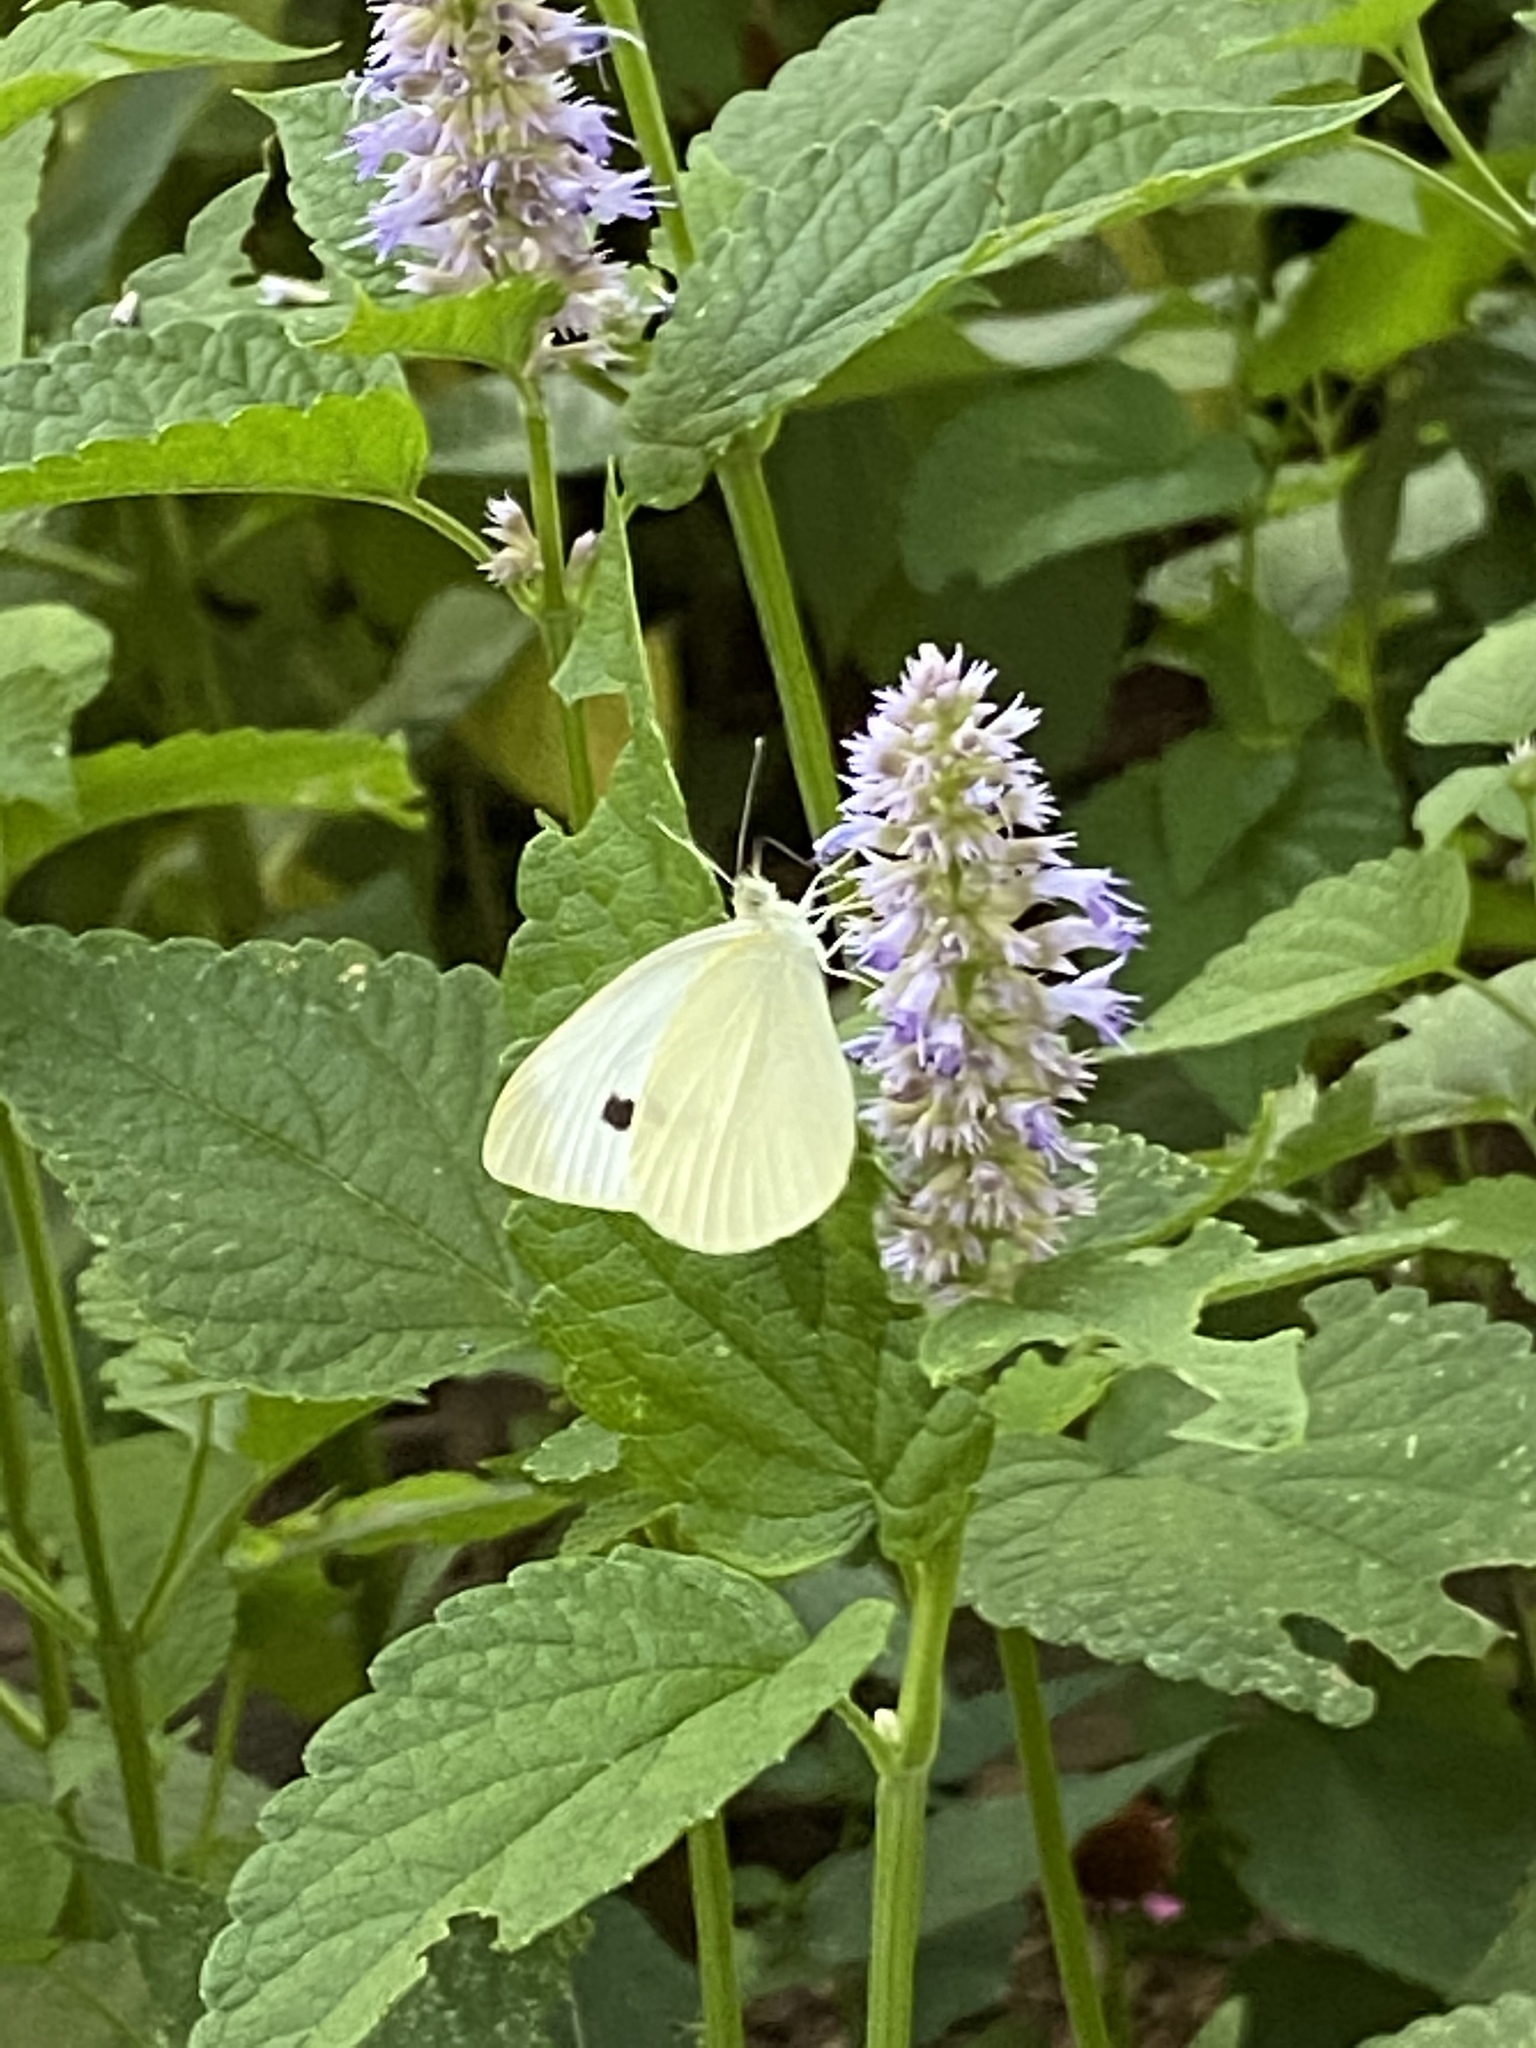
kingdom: Animalia
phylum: Arthropoda
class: Insecta
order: Lepidoptera
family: Pieridae
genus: Pieris
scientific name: Pieris rapae
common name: Small white
